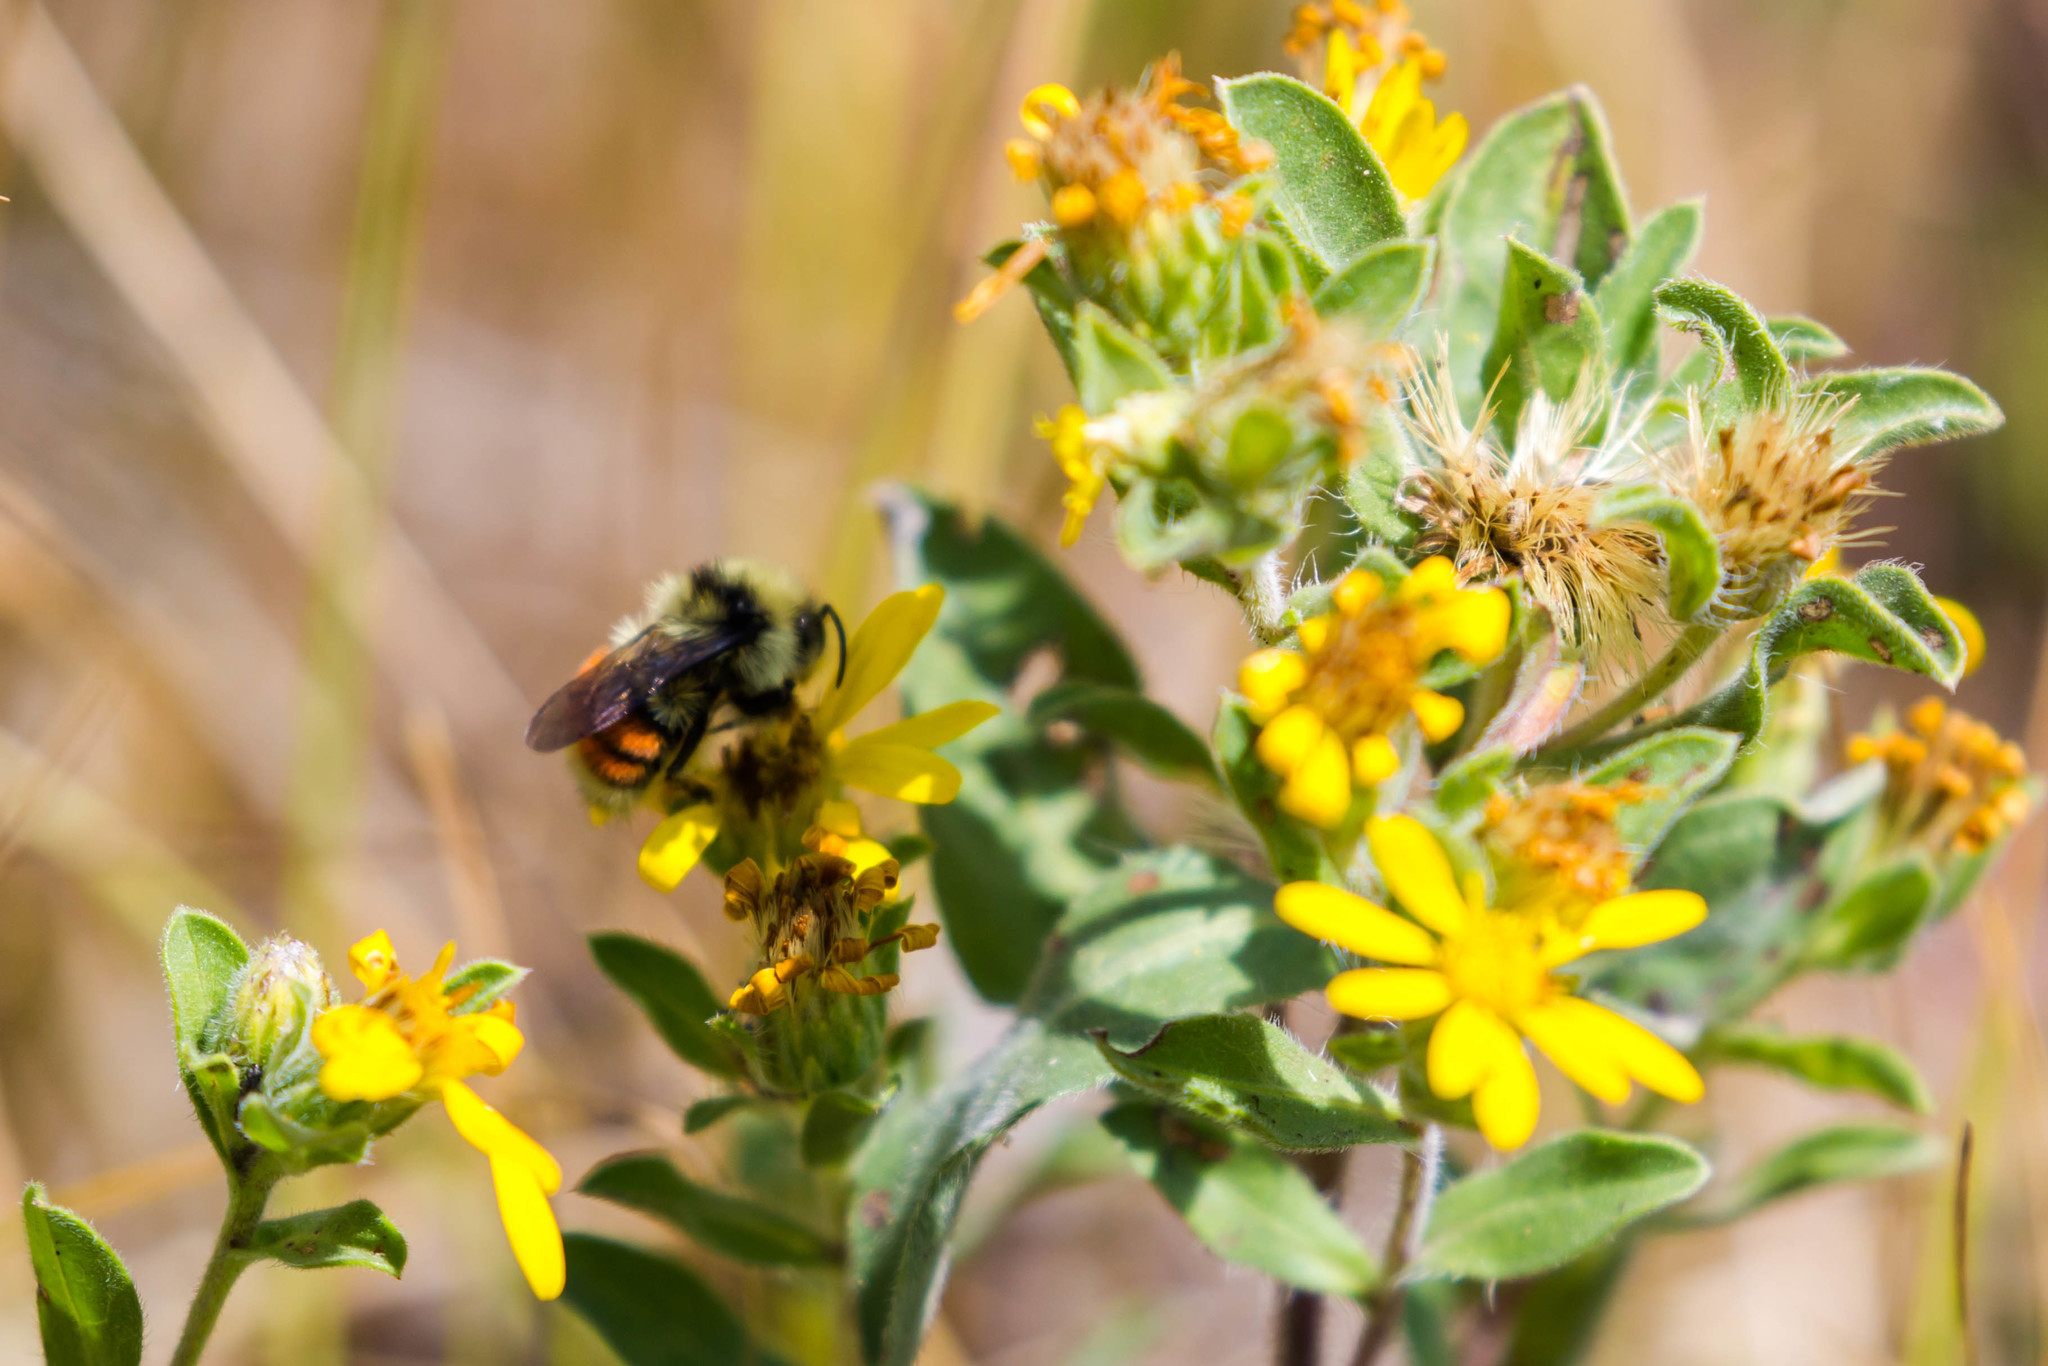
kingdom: Animalia
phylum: Arthropoda
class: Insecta
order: Hymenoptera
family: Apidae
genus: Bombus
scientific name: Bombus bifarius
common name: Two form bumble bee
